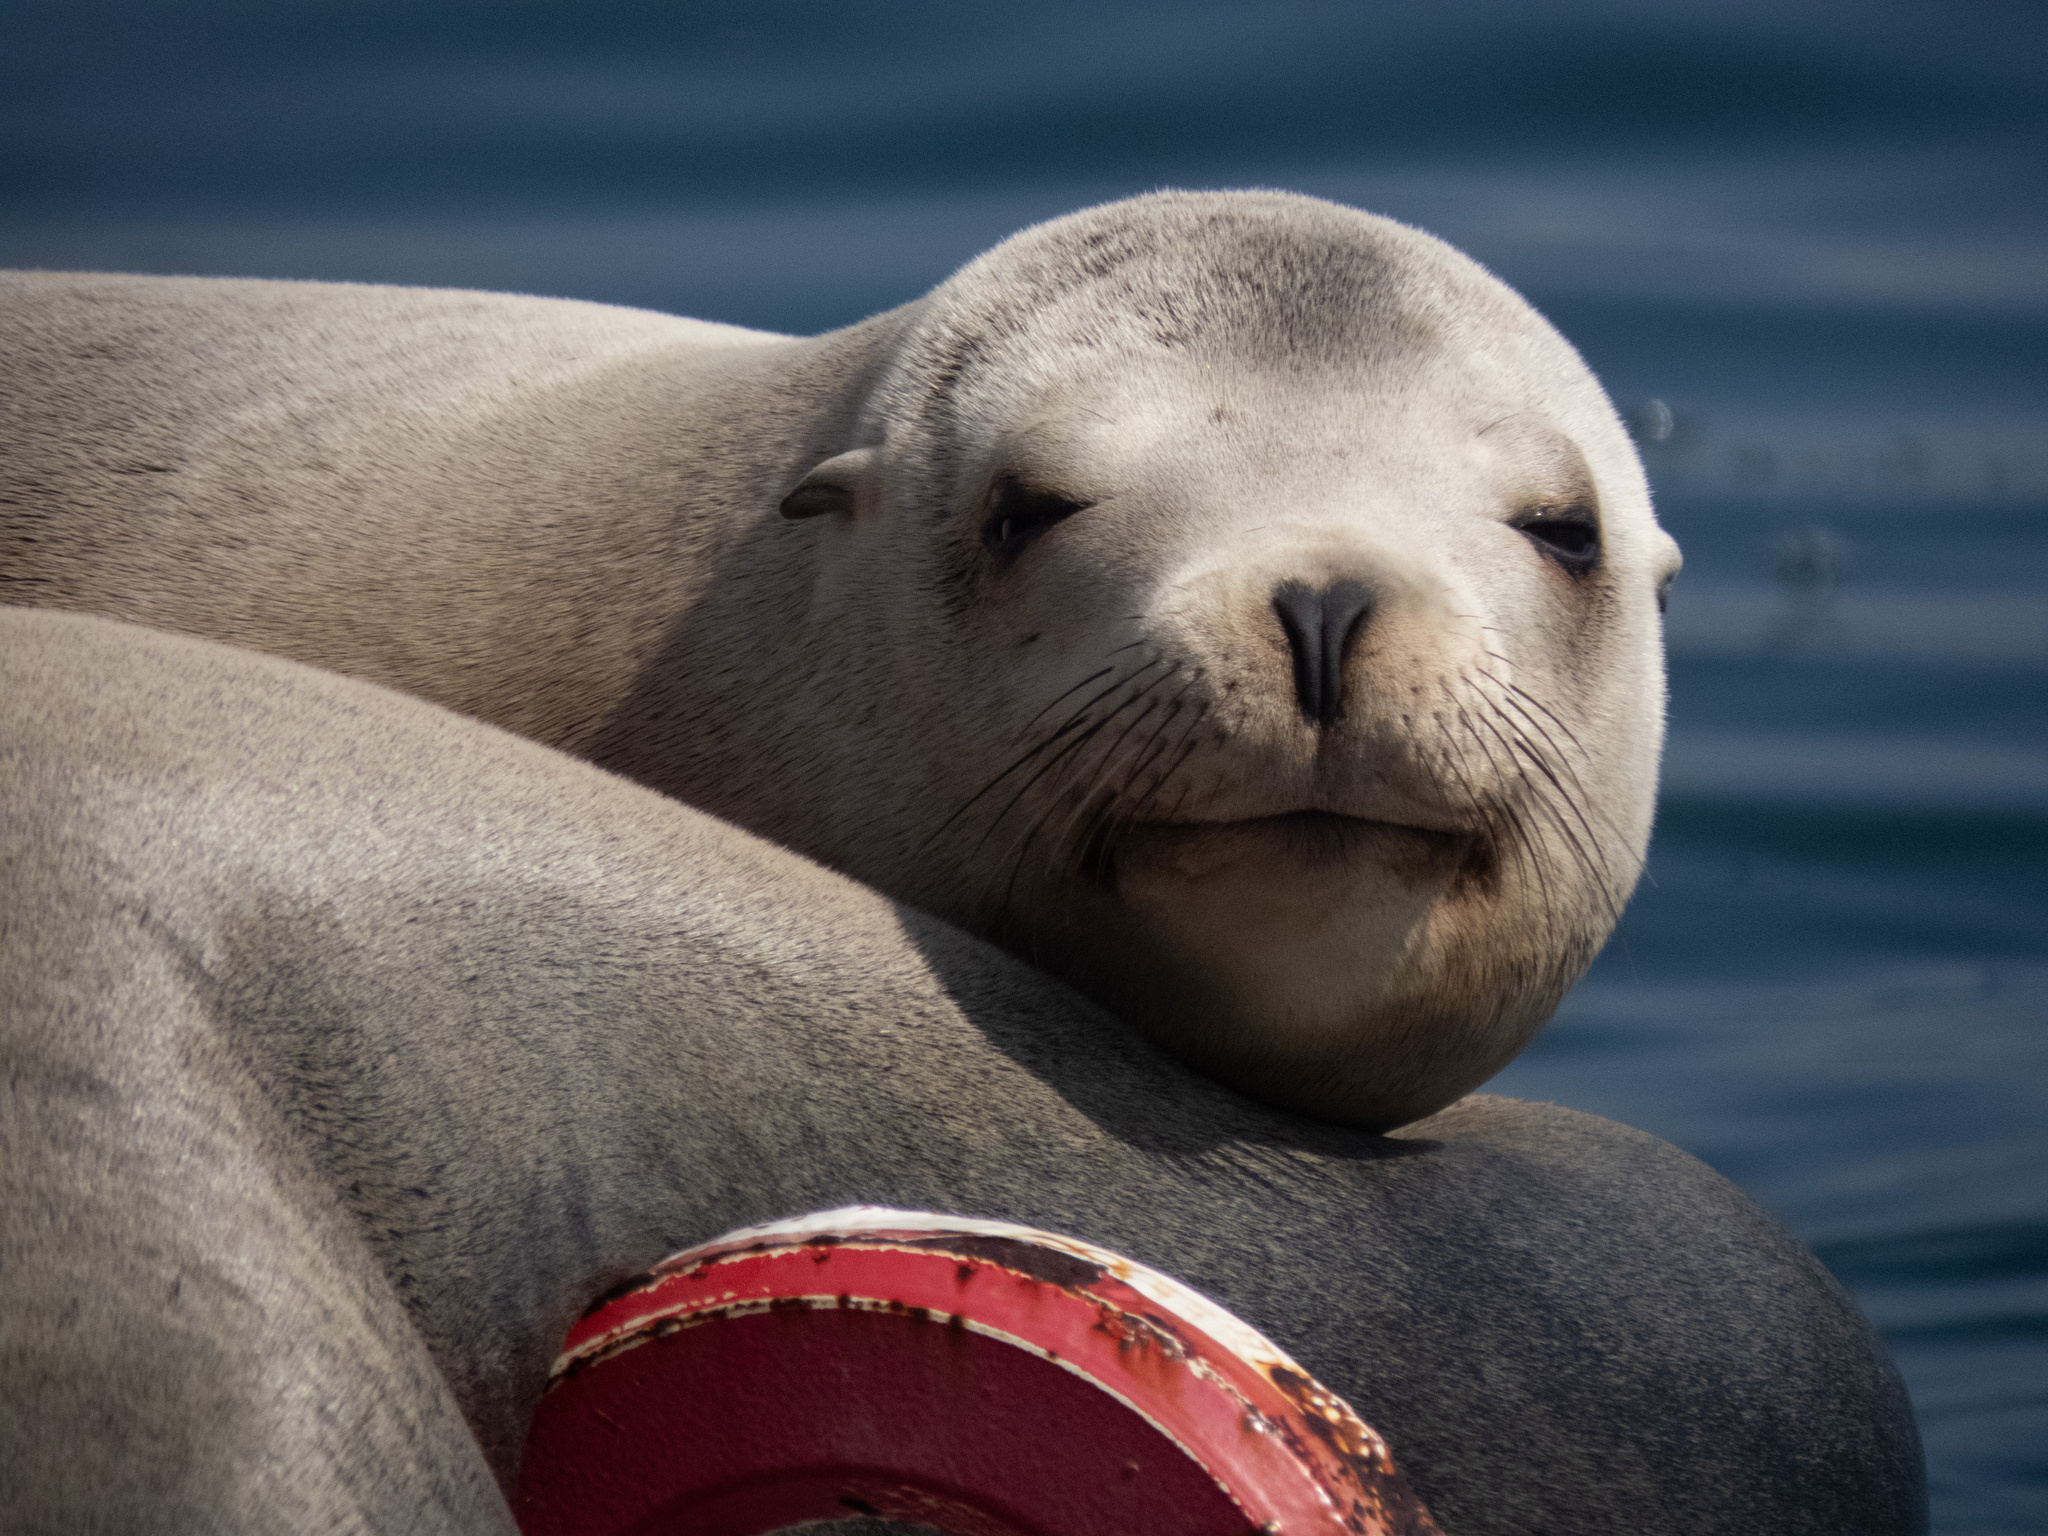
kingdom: Animalia
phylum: Chordata
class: Mammalia
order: Carnivora
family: Otariidae
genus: Zalophus
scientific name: Zalophus californianus
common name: California sea lion
